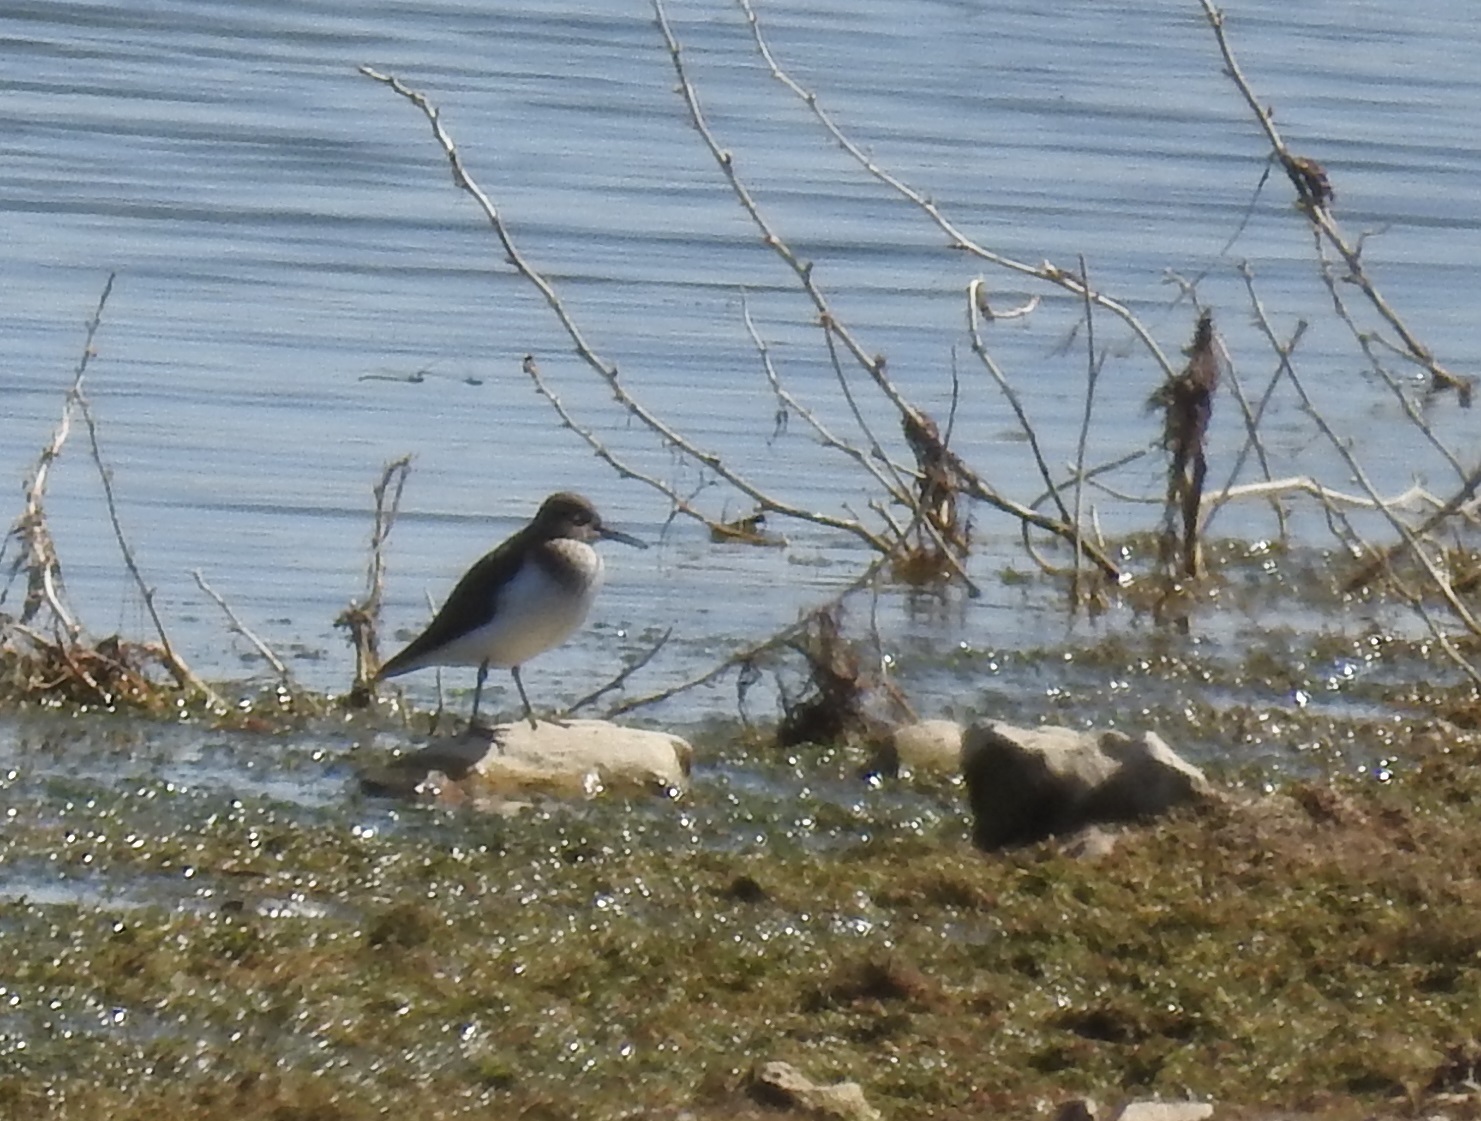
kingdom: Animalia
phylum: Chordata
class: Aves
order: Charadriiformes
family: Scolopacidae
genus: Actitis
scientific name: Actitis hypoleucos
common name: Common sandpiper
